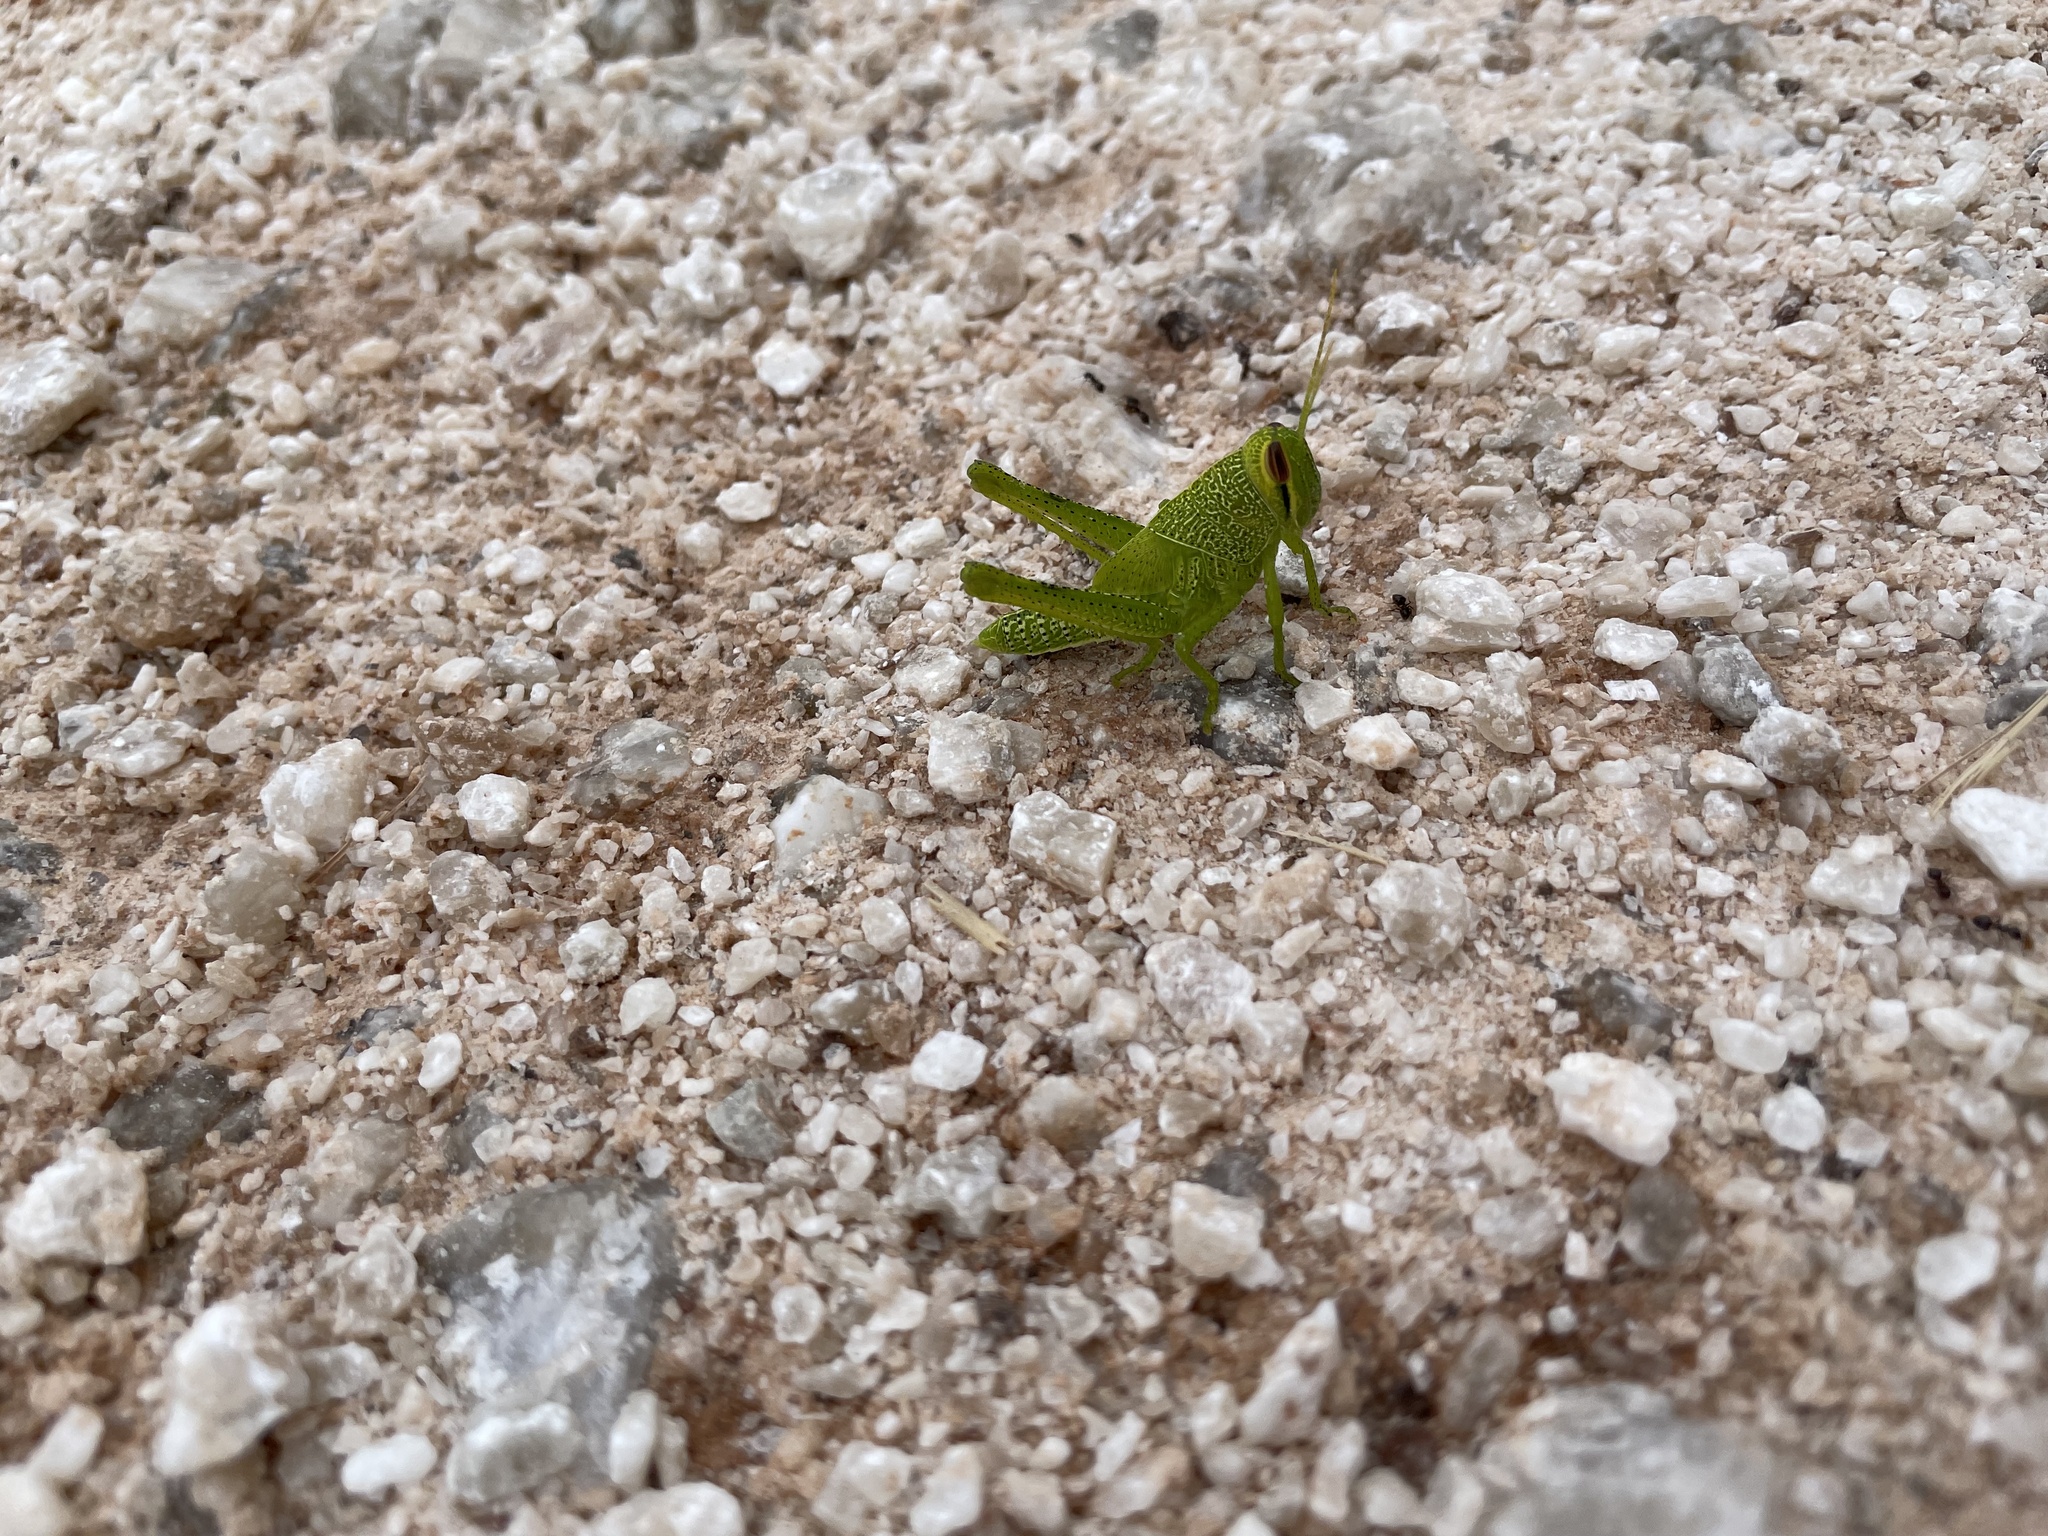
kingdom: Animalia
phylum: Arthropoda
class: Insecta
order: Orthoptera
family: Acrididae
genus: Schistocerca
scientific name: Schistocerca obscura
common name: Obscure bird grasshopper
